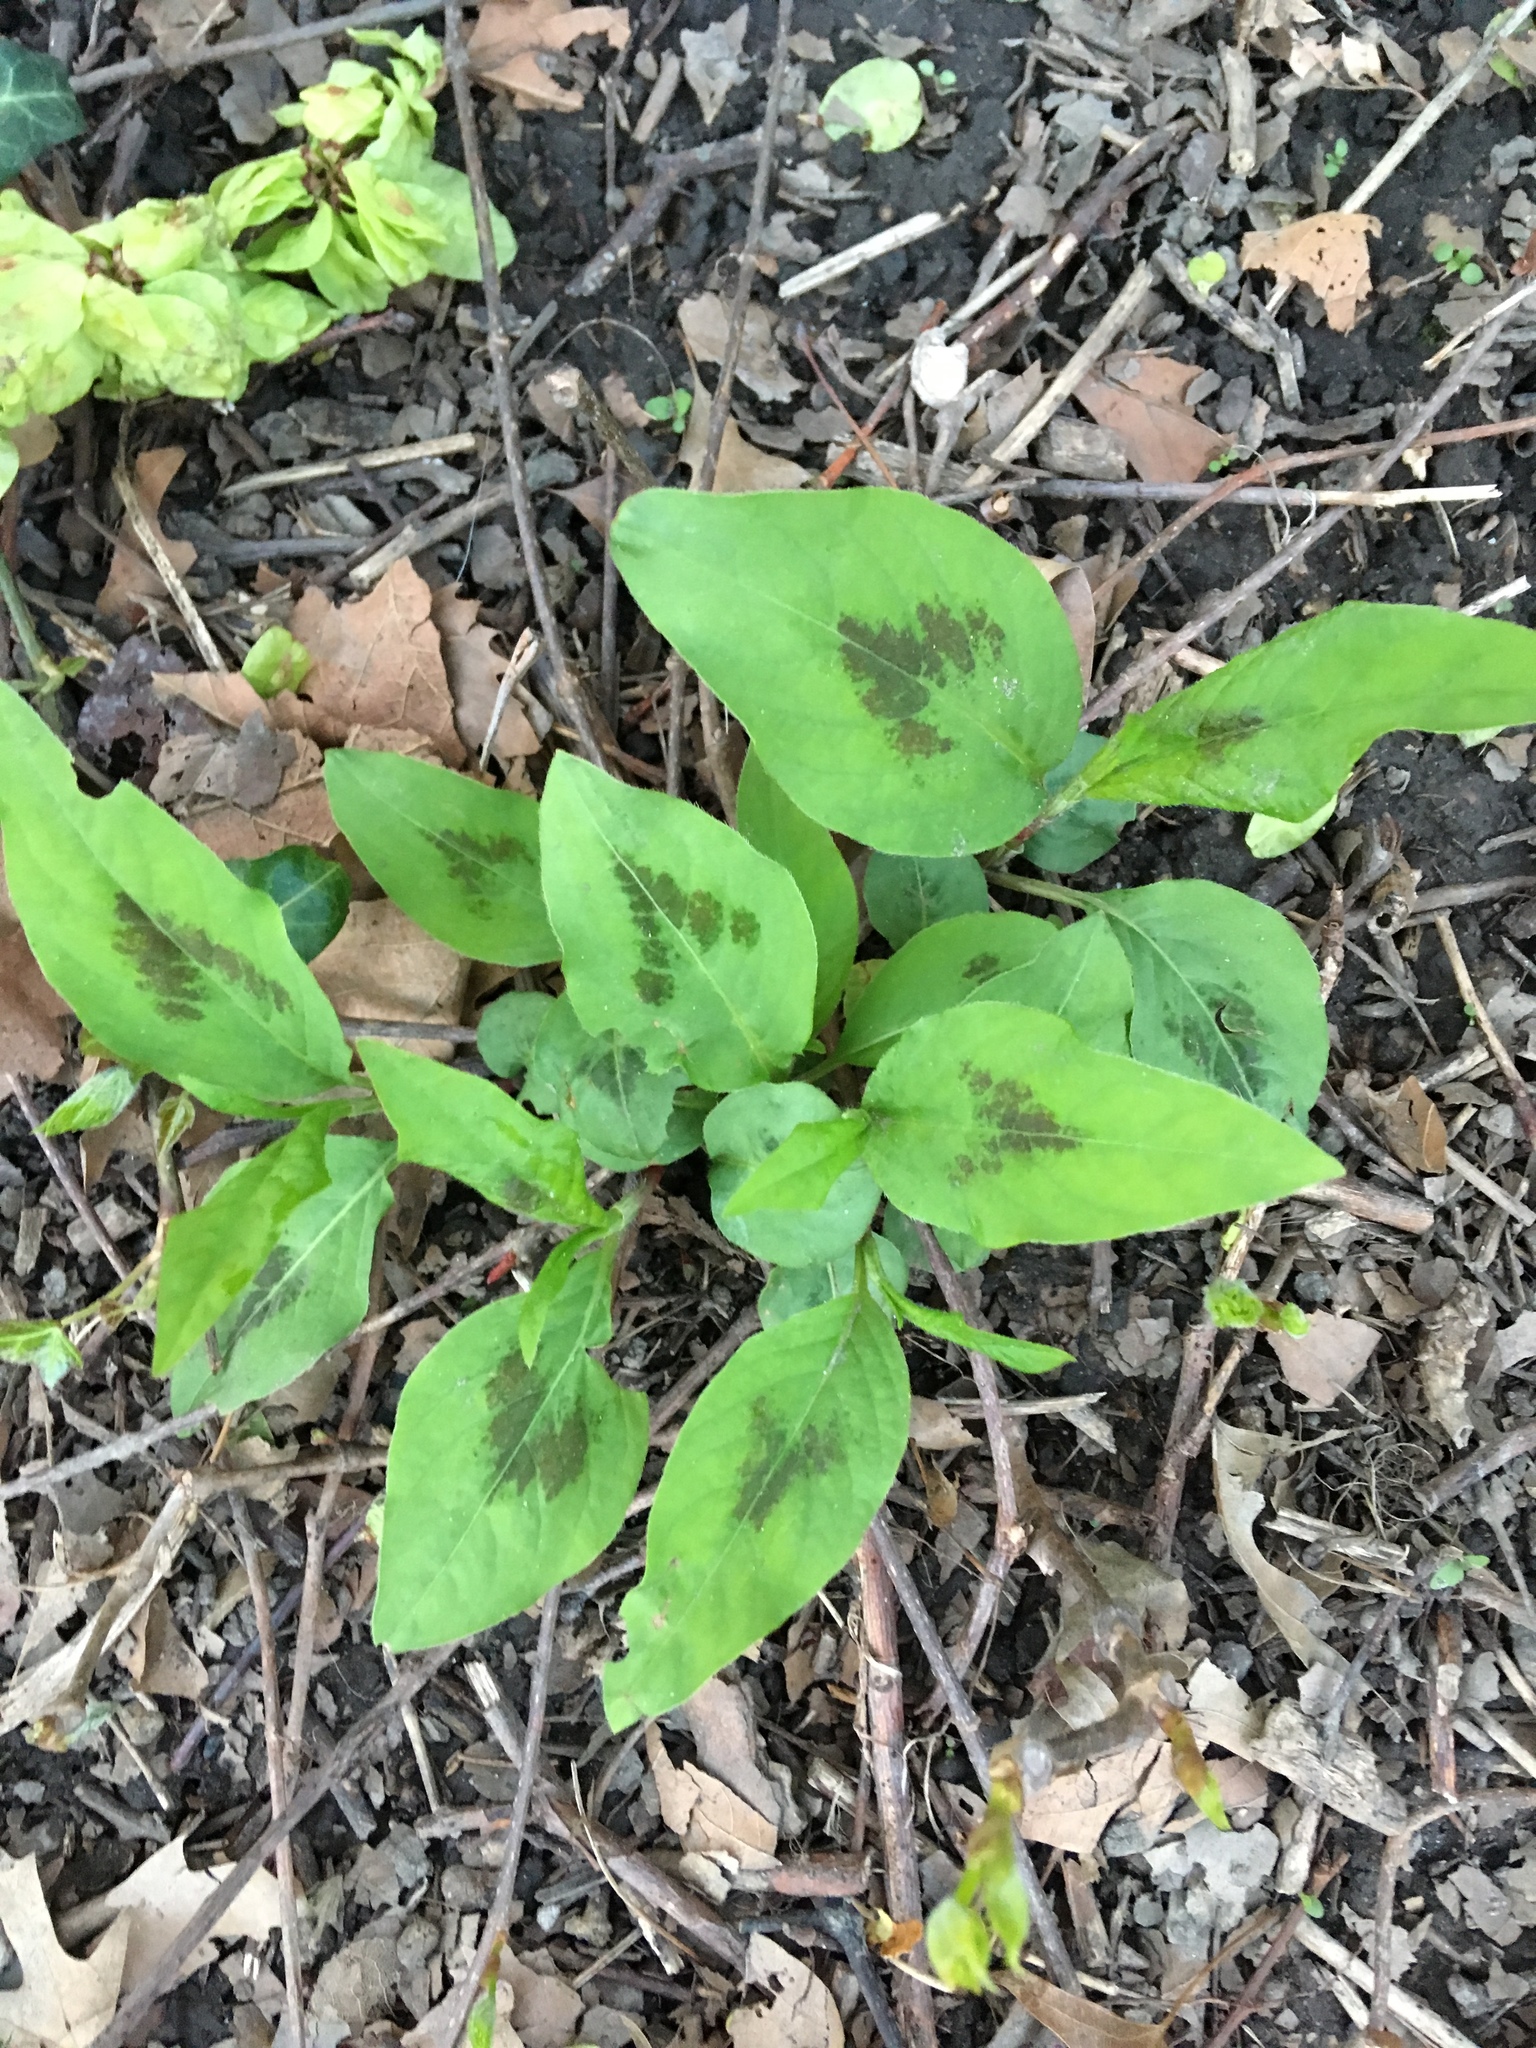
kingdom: Plantae
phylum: Tracheophyta
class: Magnoliopsida
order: Caryophyllales
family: Polygonaceae
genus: Persicaria
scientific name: Persicaria virginiana
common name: Jumpseed
